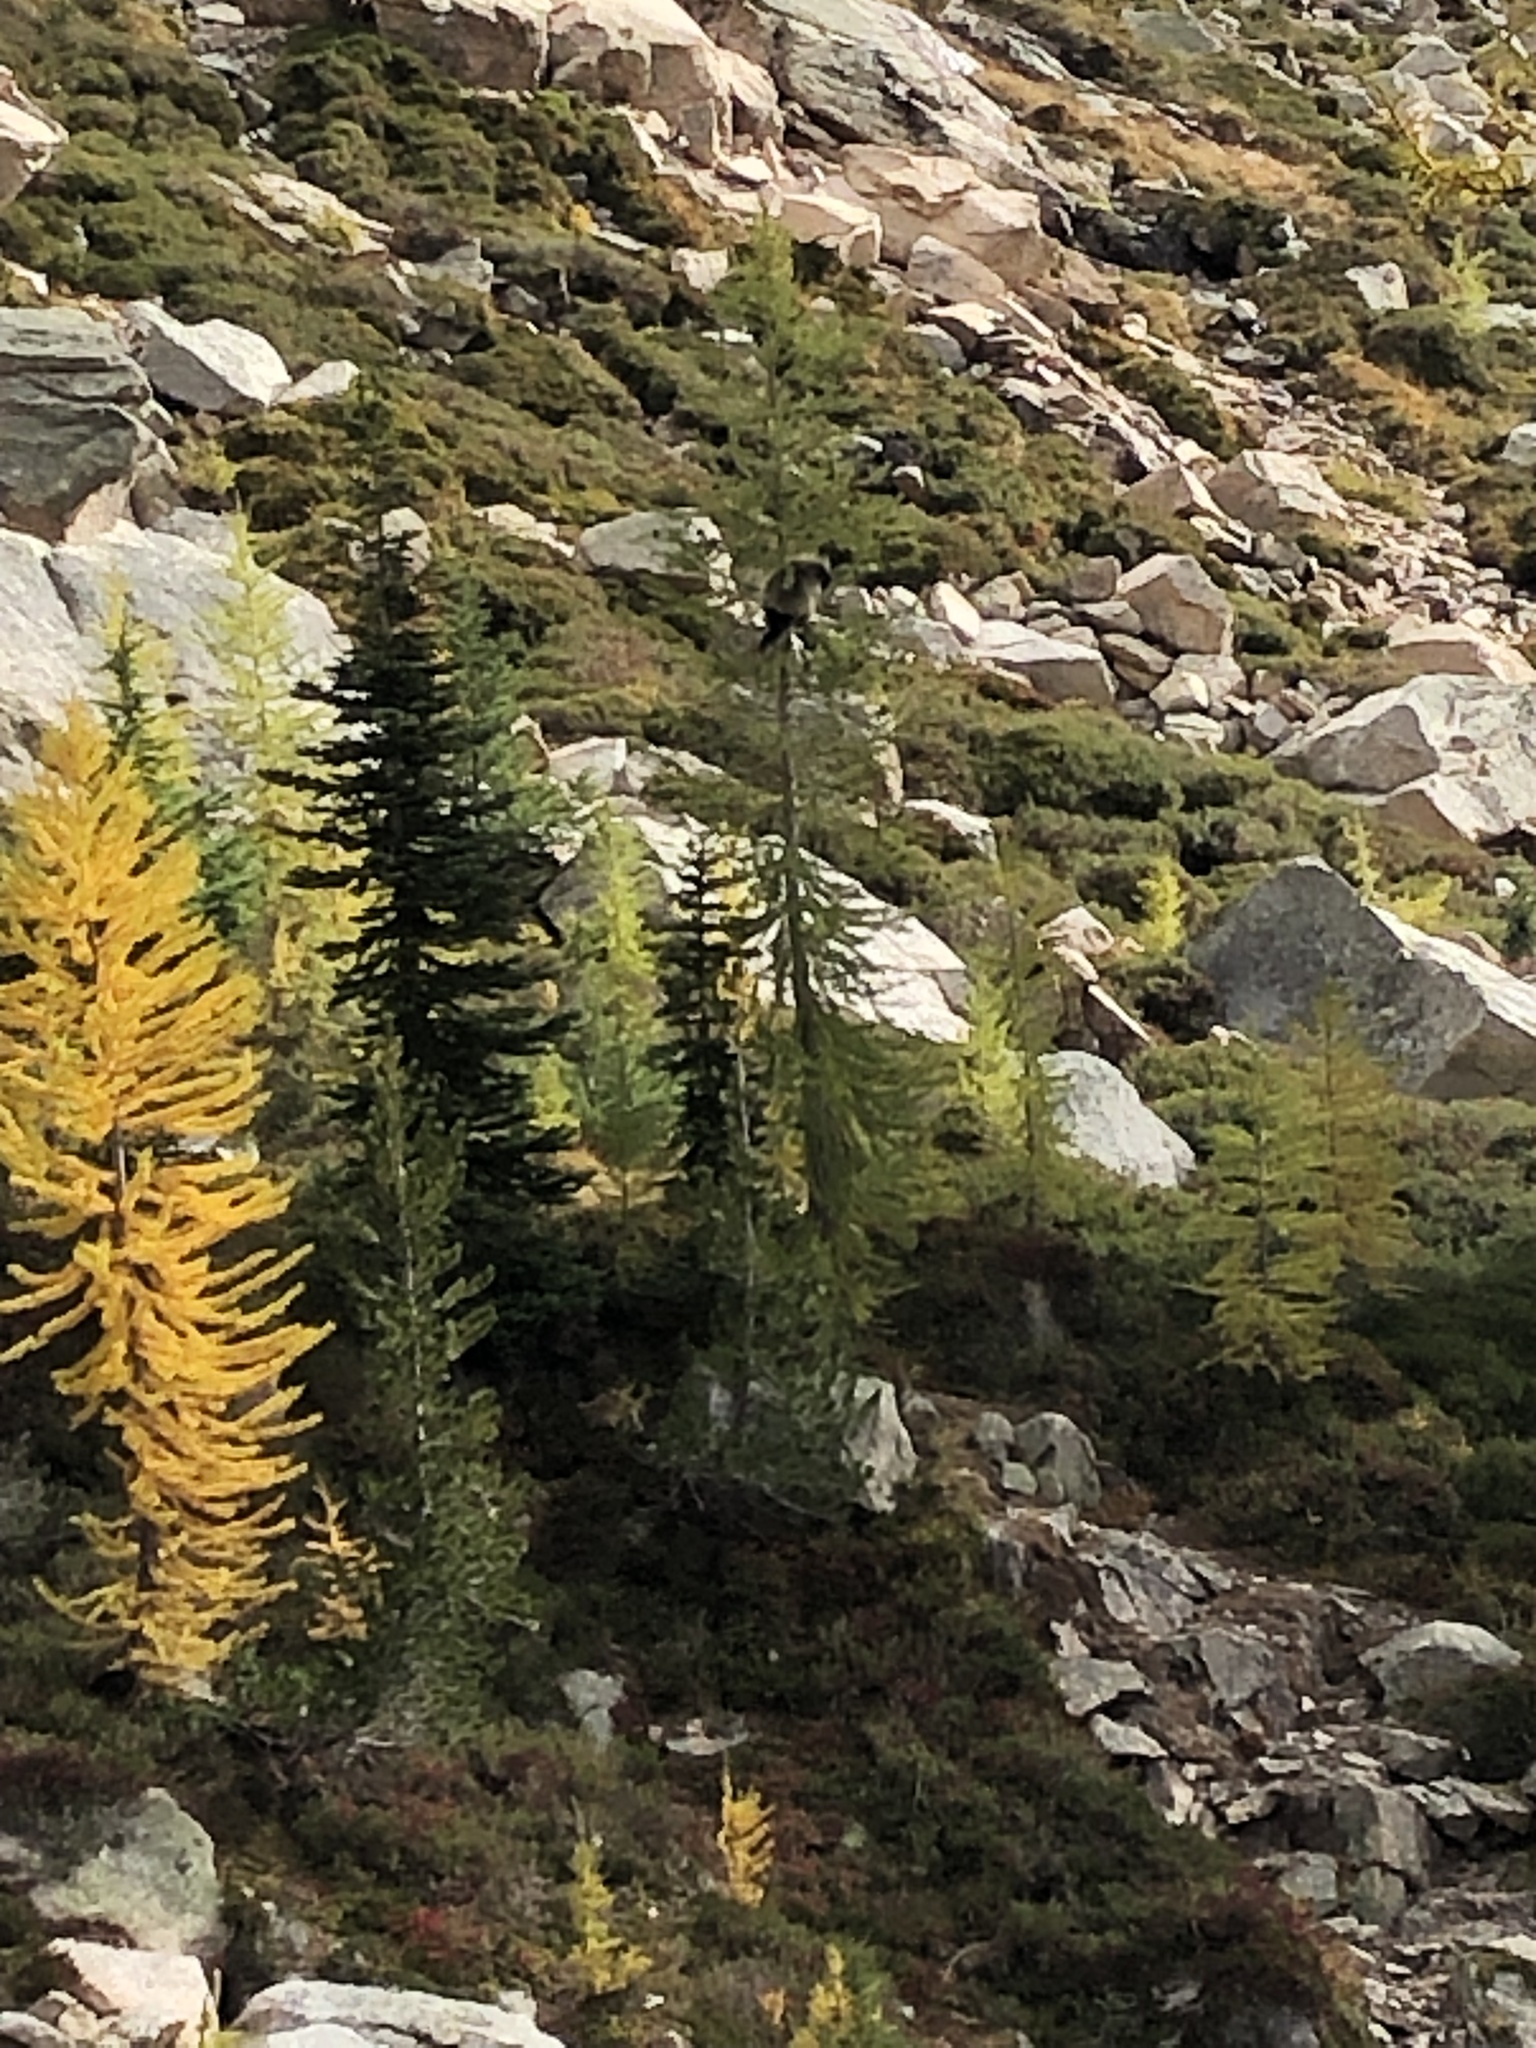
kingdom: Animalia
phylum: Chordata
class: Mammalia
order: Rodentia
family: Erethizontidae
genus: Erethizon
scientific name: Erethizon dorsatus
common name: North american porcupine
